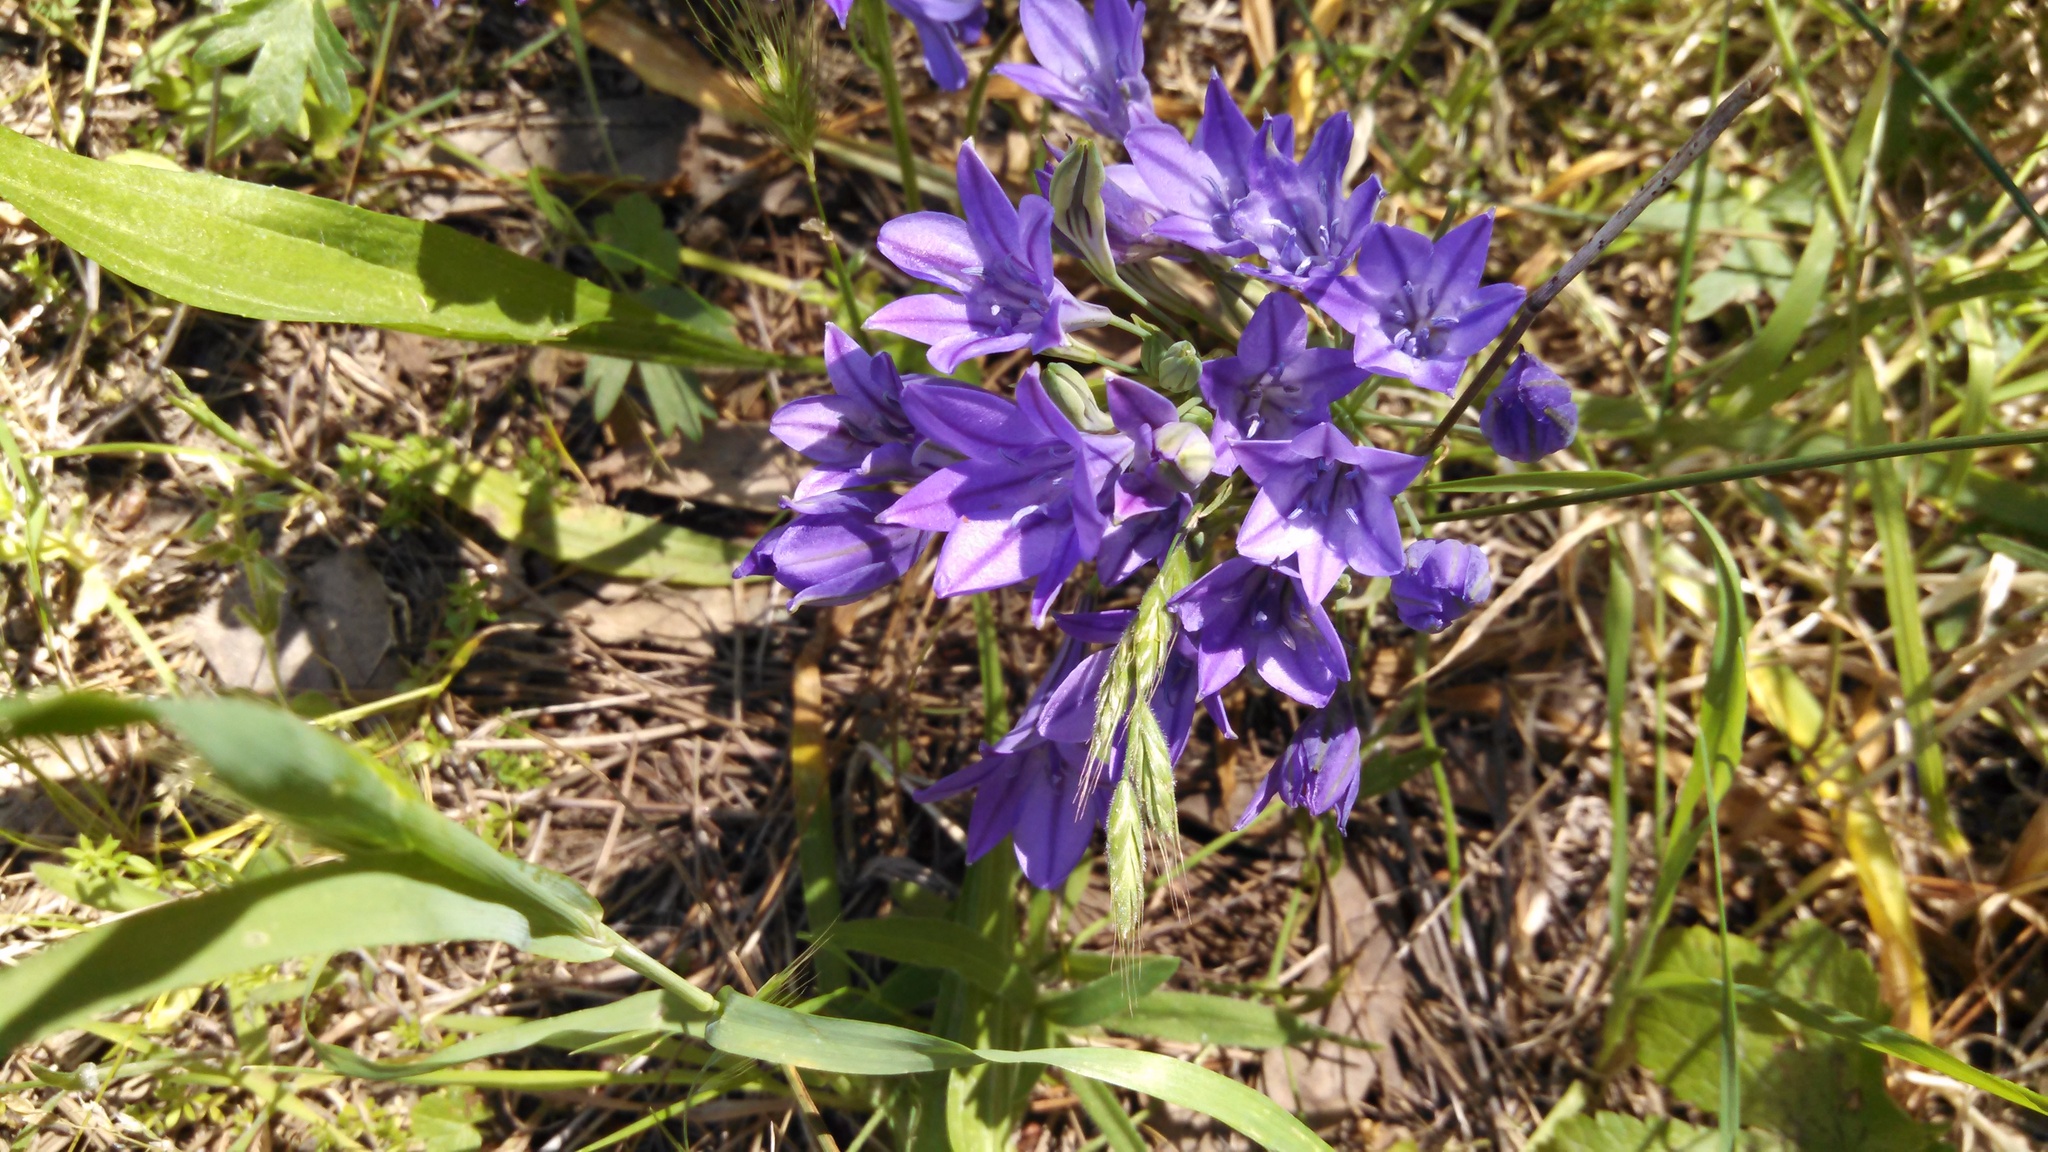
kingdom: Plantae
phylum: Tracheophyta
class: Liliopsida
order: Asparagales
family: Asparagaceae
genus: Triteleia
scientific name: Triteleia laxa
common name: Triplet-lily
